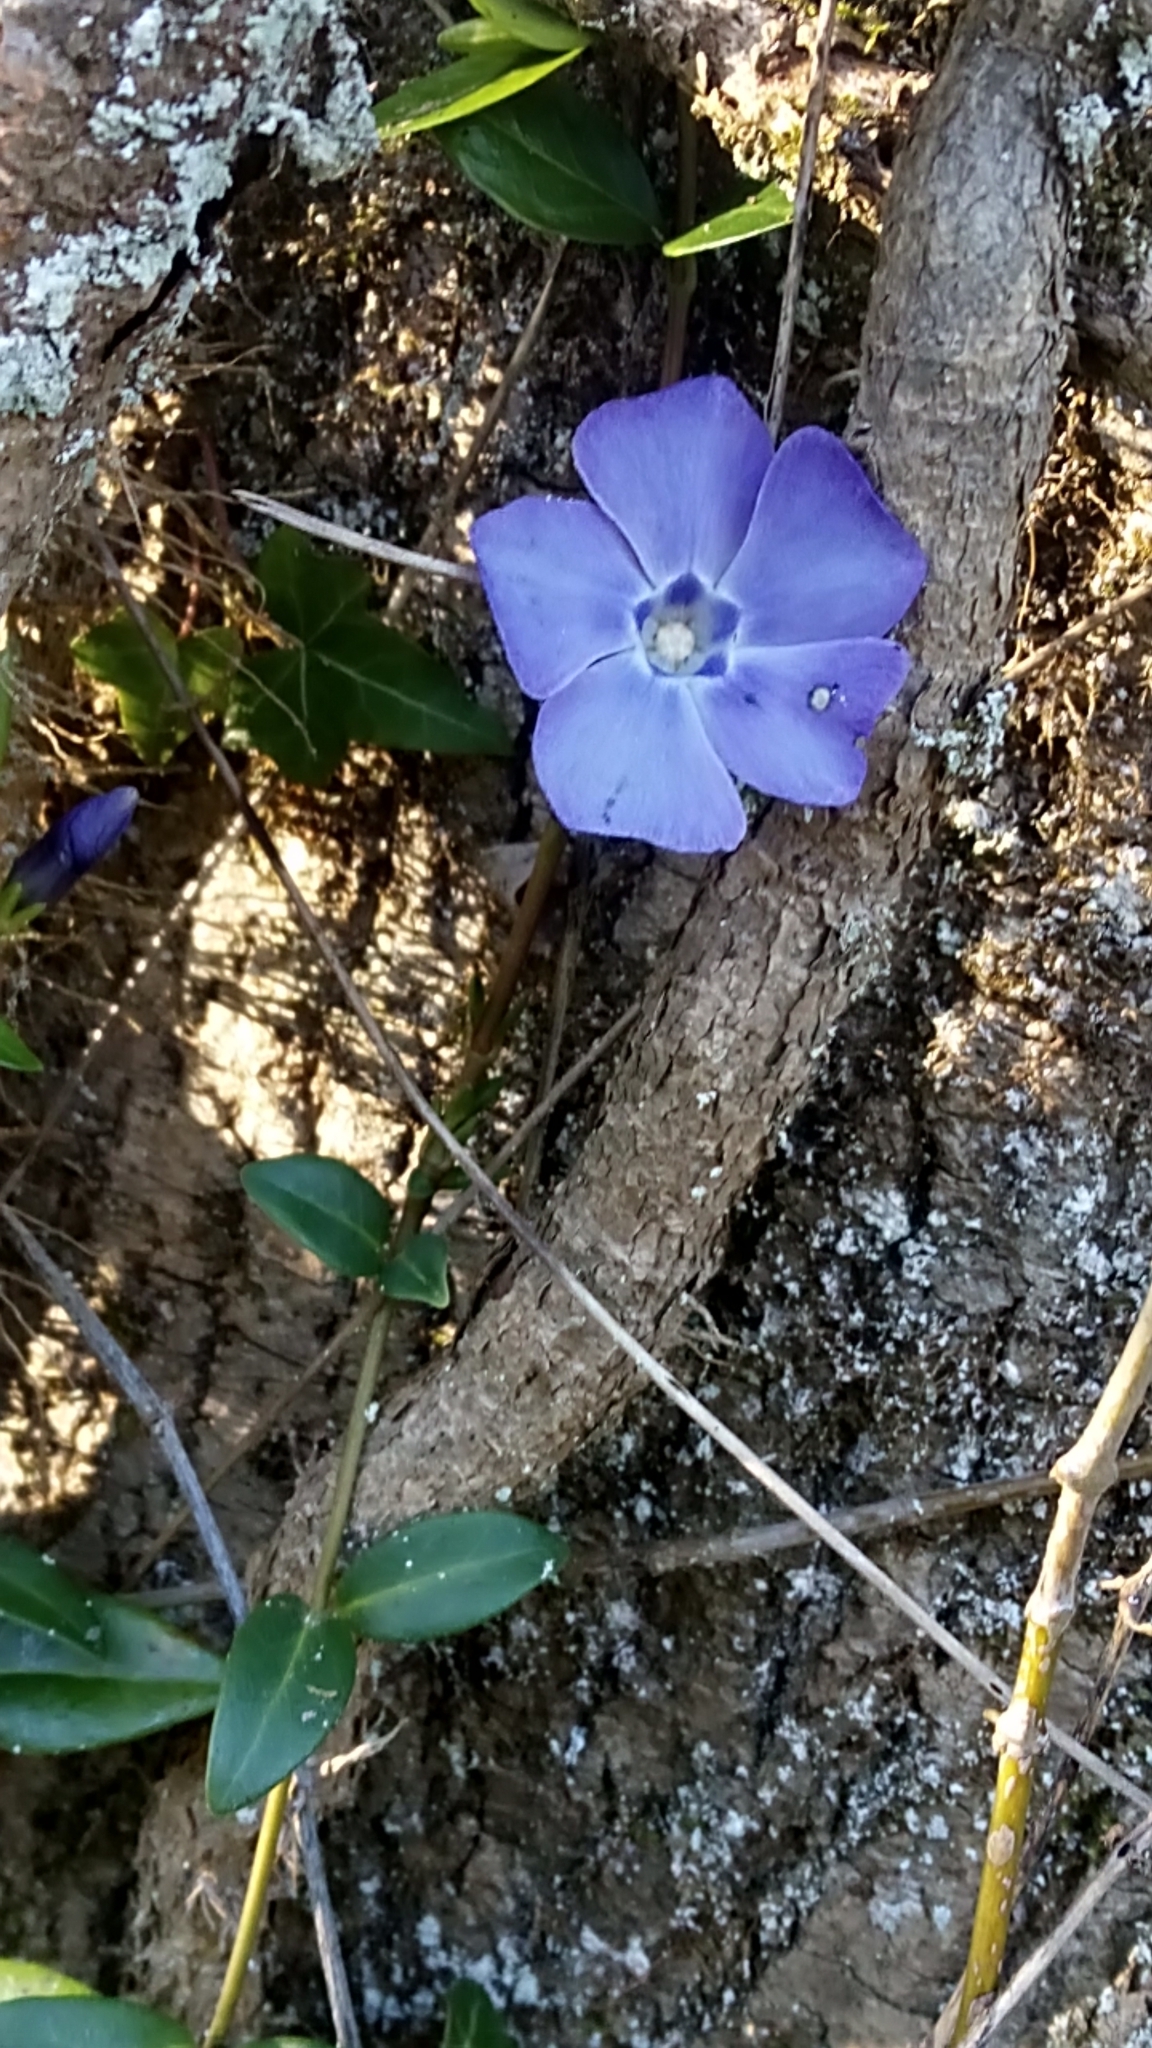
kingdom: Plantae
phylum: Tracheophyta
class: Magnoliopsida
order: Gentianales
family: Apocynaceae
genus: Vinca
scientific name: Vinca minor
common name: Lesser periwinkle
